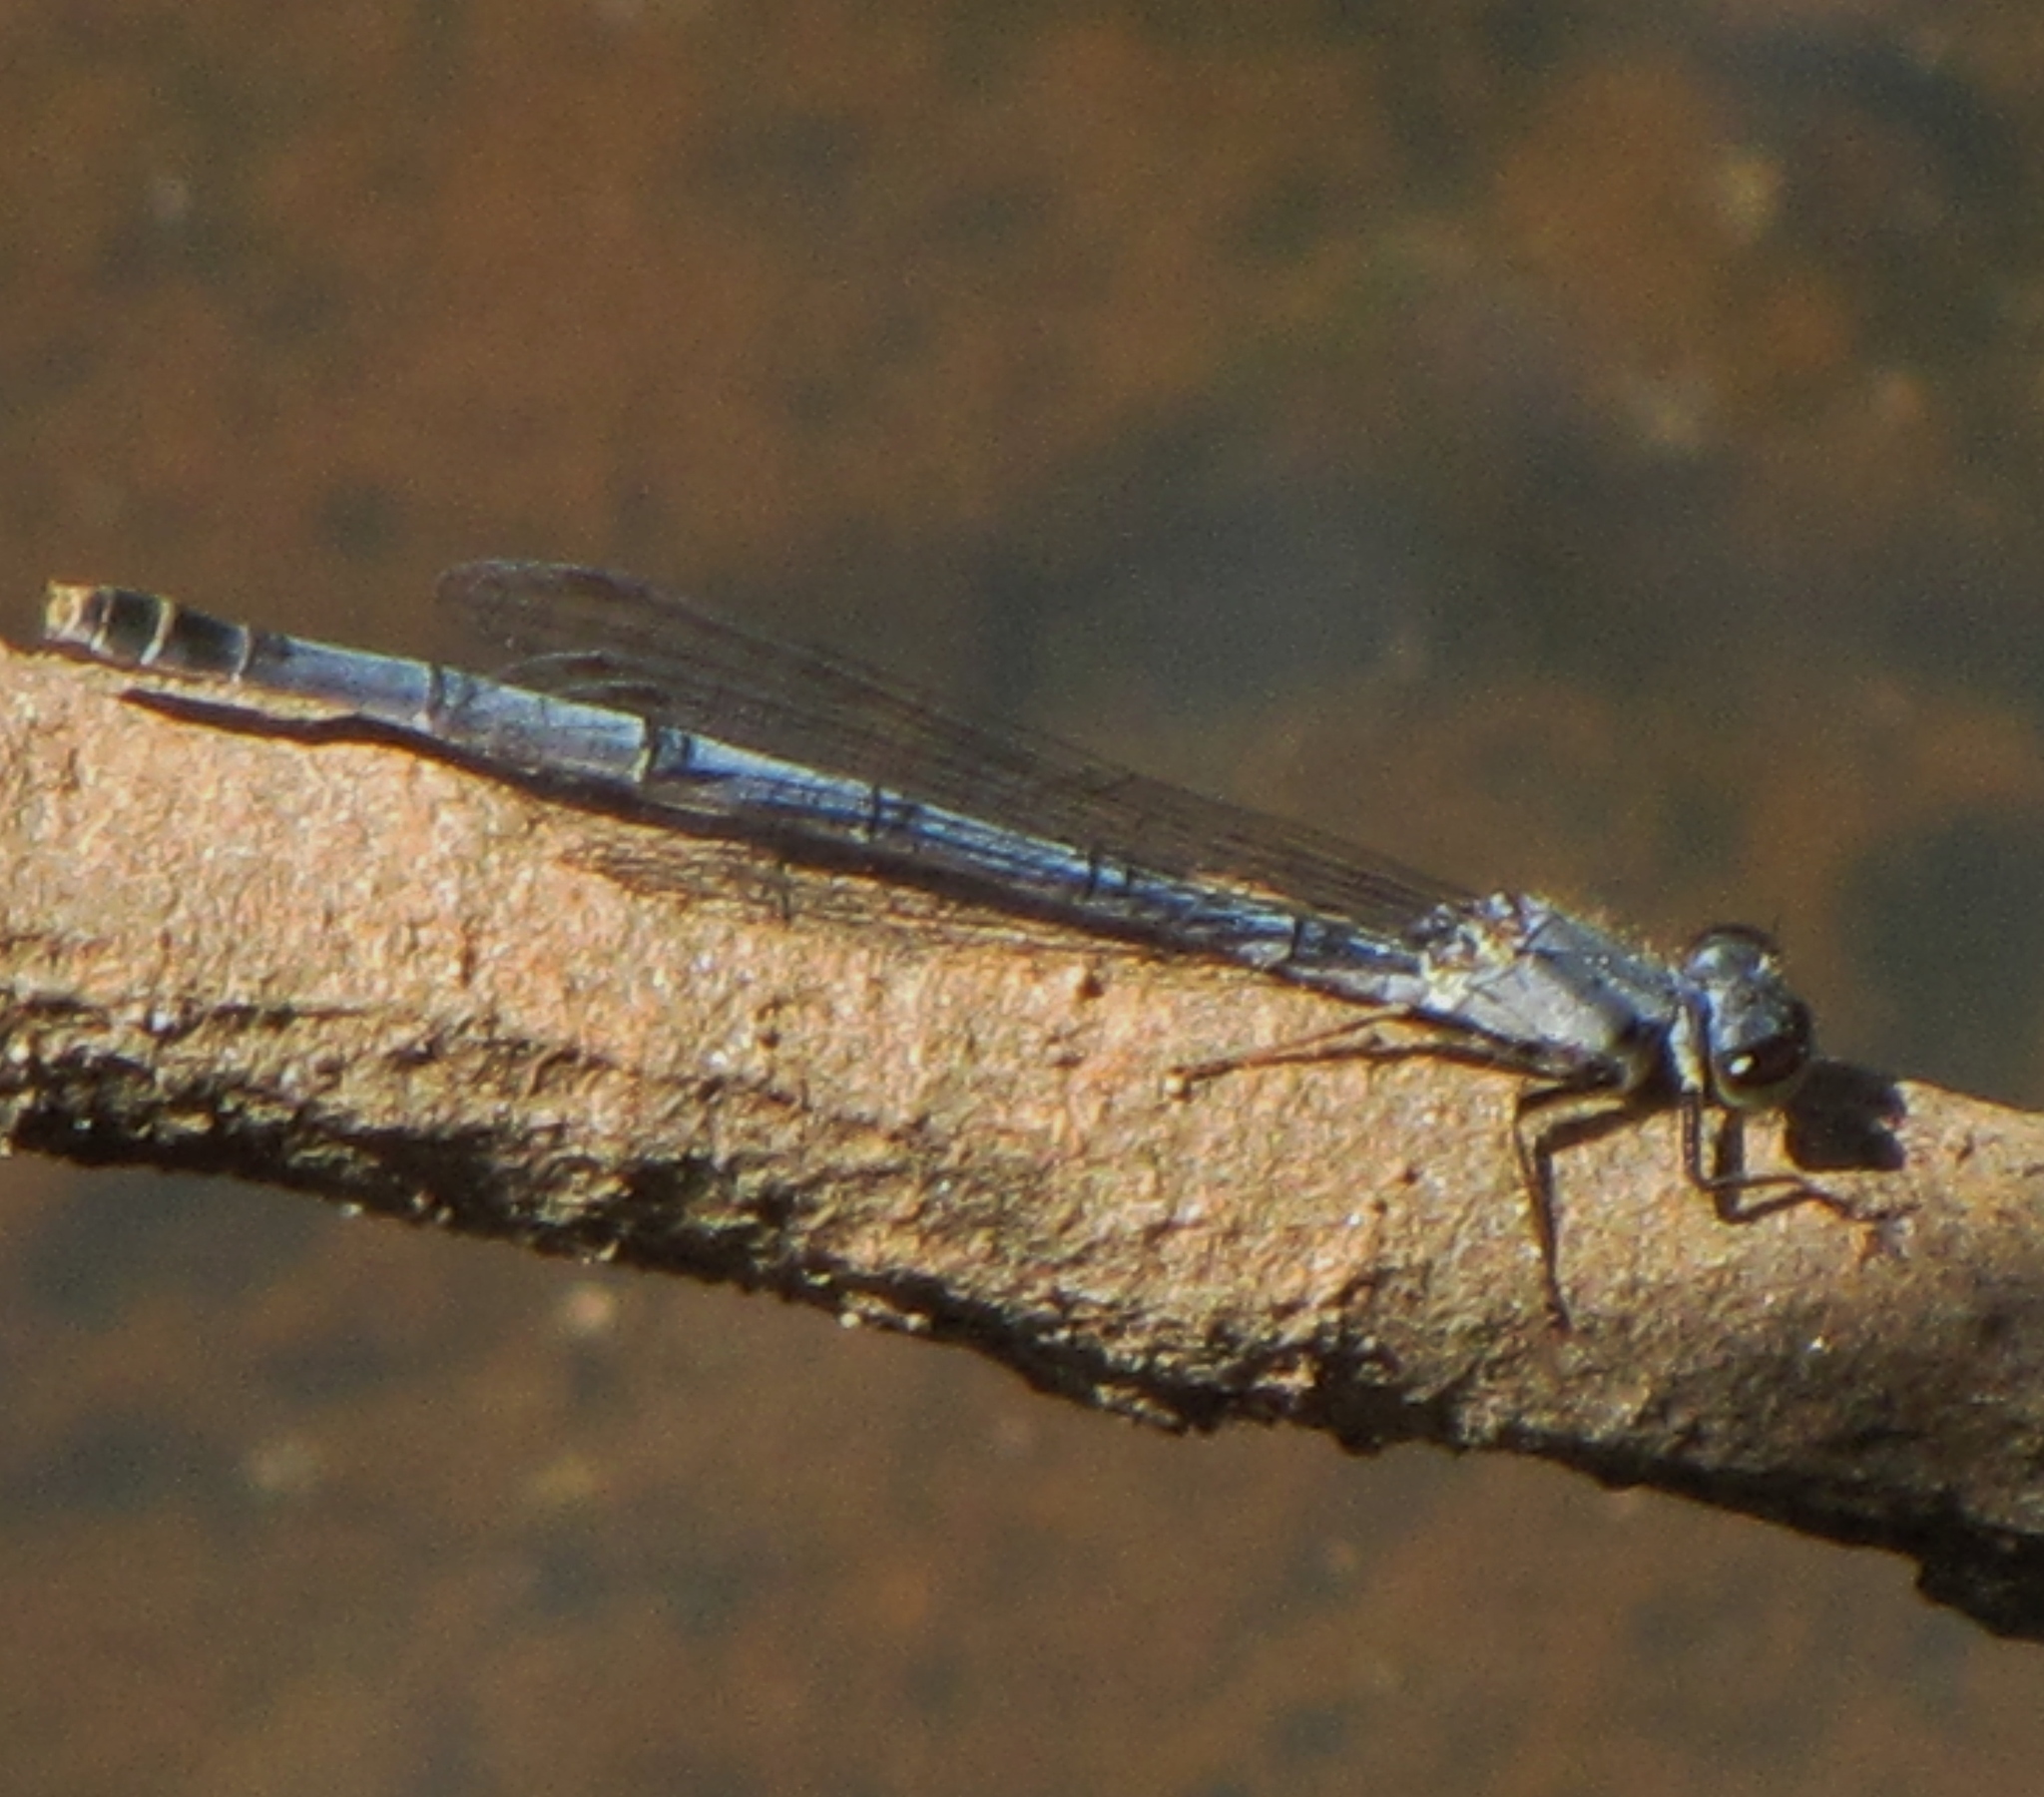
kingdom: Animalia
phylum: Arthropoda
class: Insecta
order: Odonata
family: Coenagrionidae
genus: Ischnura
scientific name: Ischnura posita
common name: Fragile forktail
